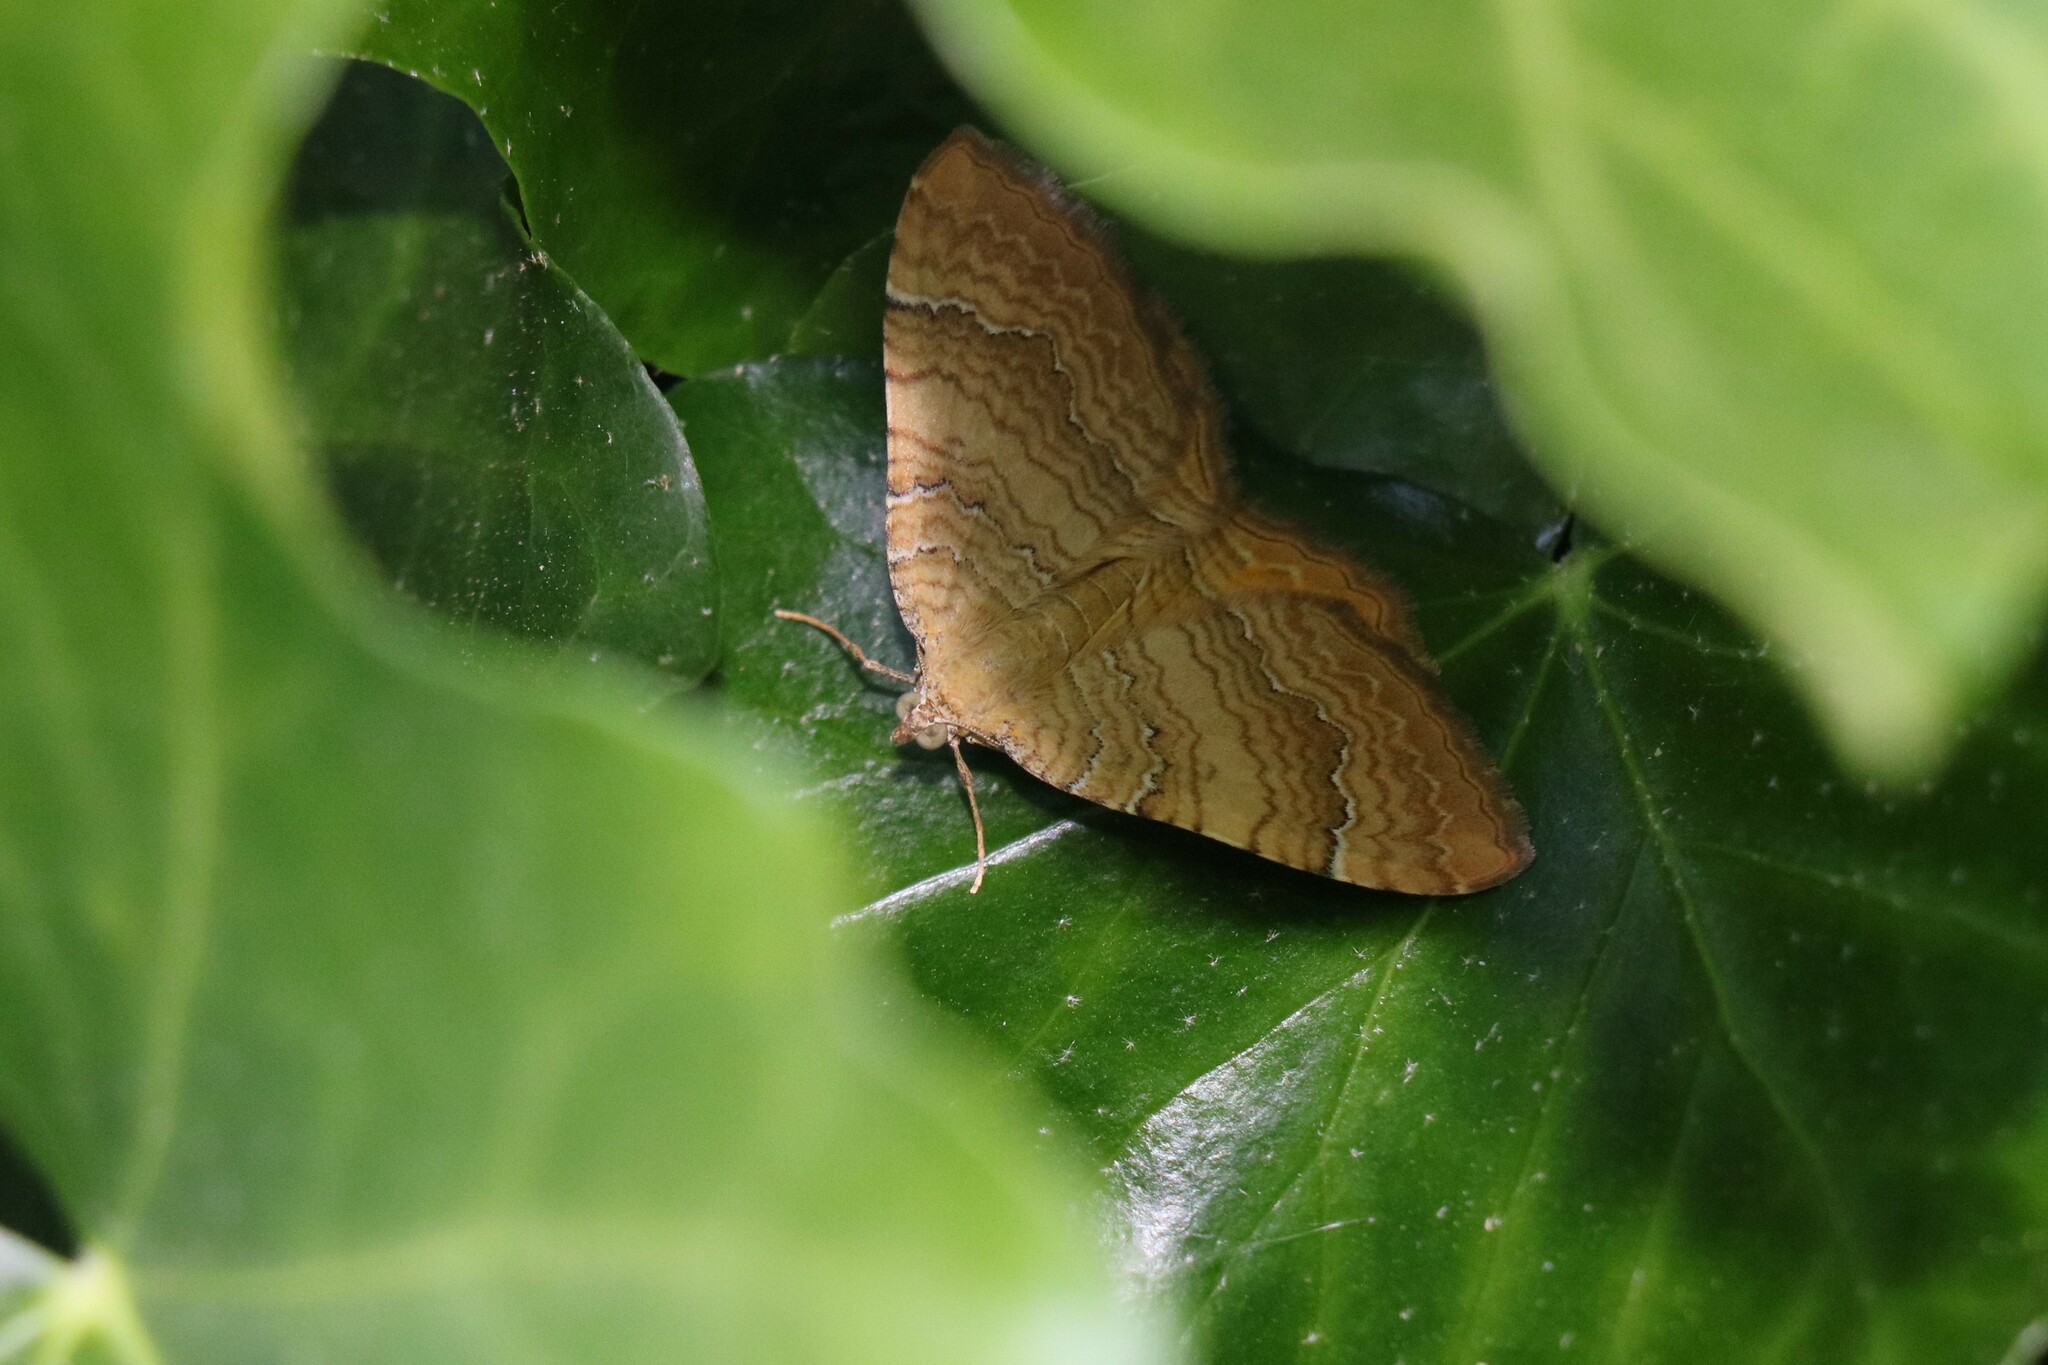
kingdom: Animalia
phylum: Arthropoda
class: Insecta
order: Lepidoptera
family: Geometridae
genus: Camptogramma
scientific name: Camptogramma bilineata
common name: Yellow shell
